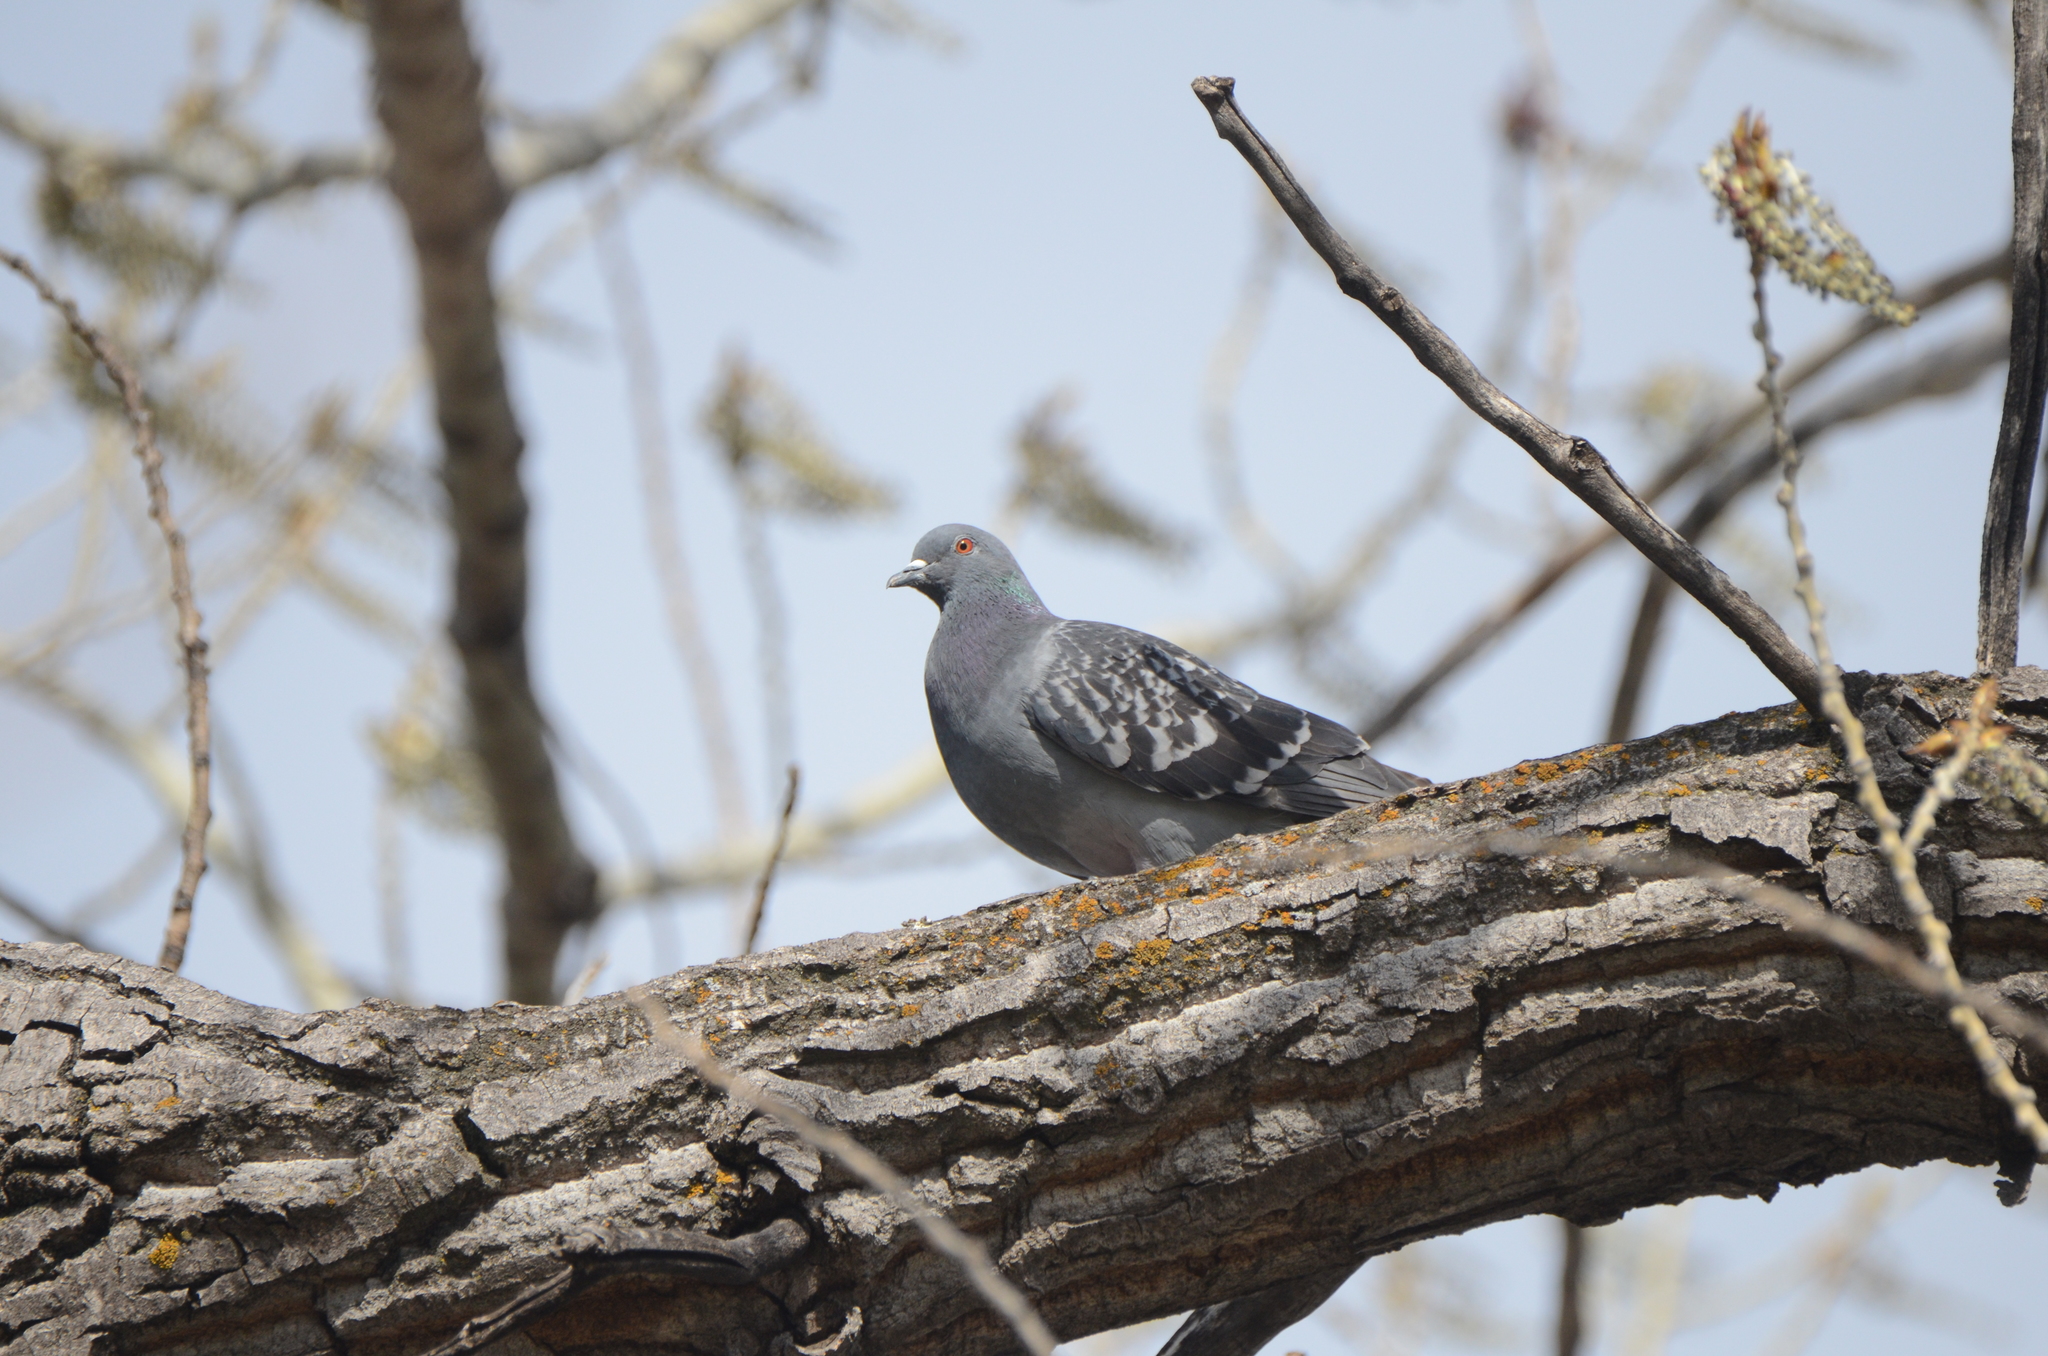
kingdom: Animalia
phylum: Chordata
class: Aves
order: Columbiformes
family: Columbidae
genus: Columba
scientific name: Columba livia
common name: Rock pigeon
